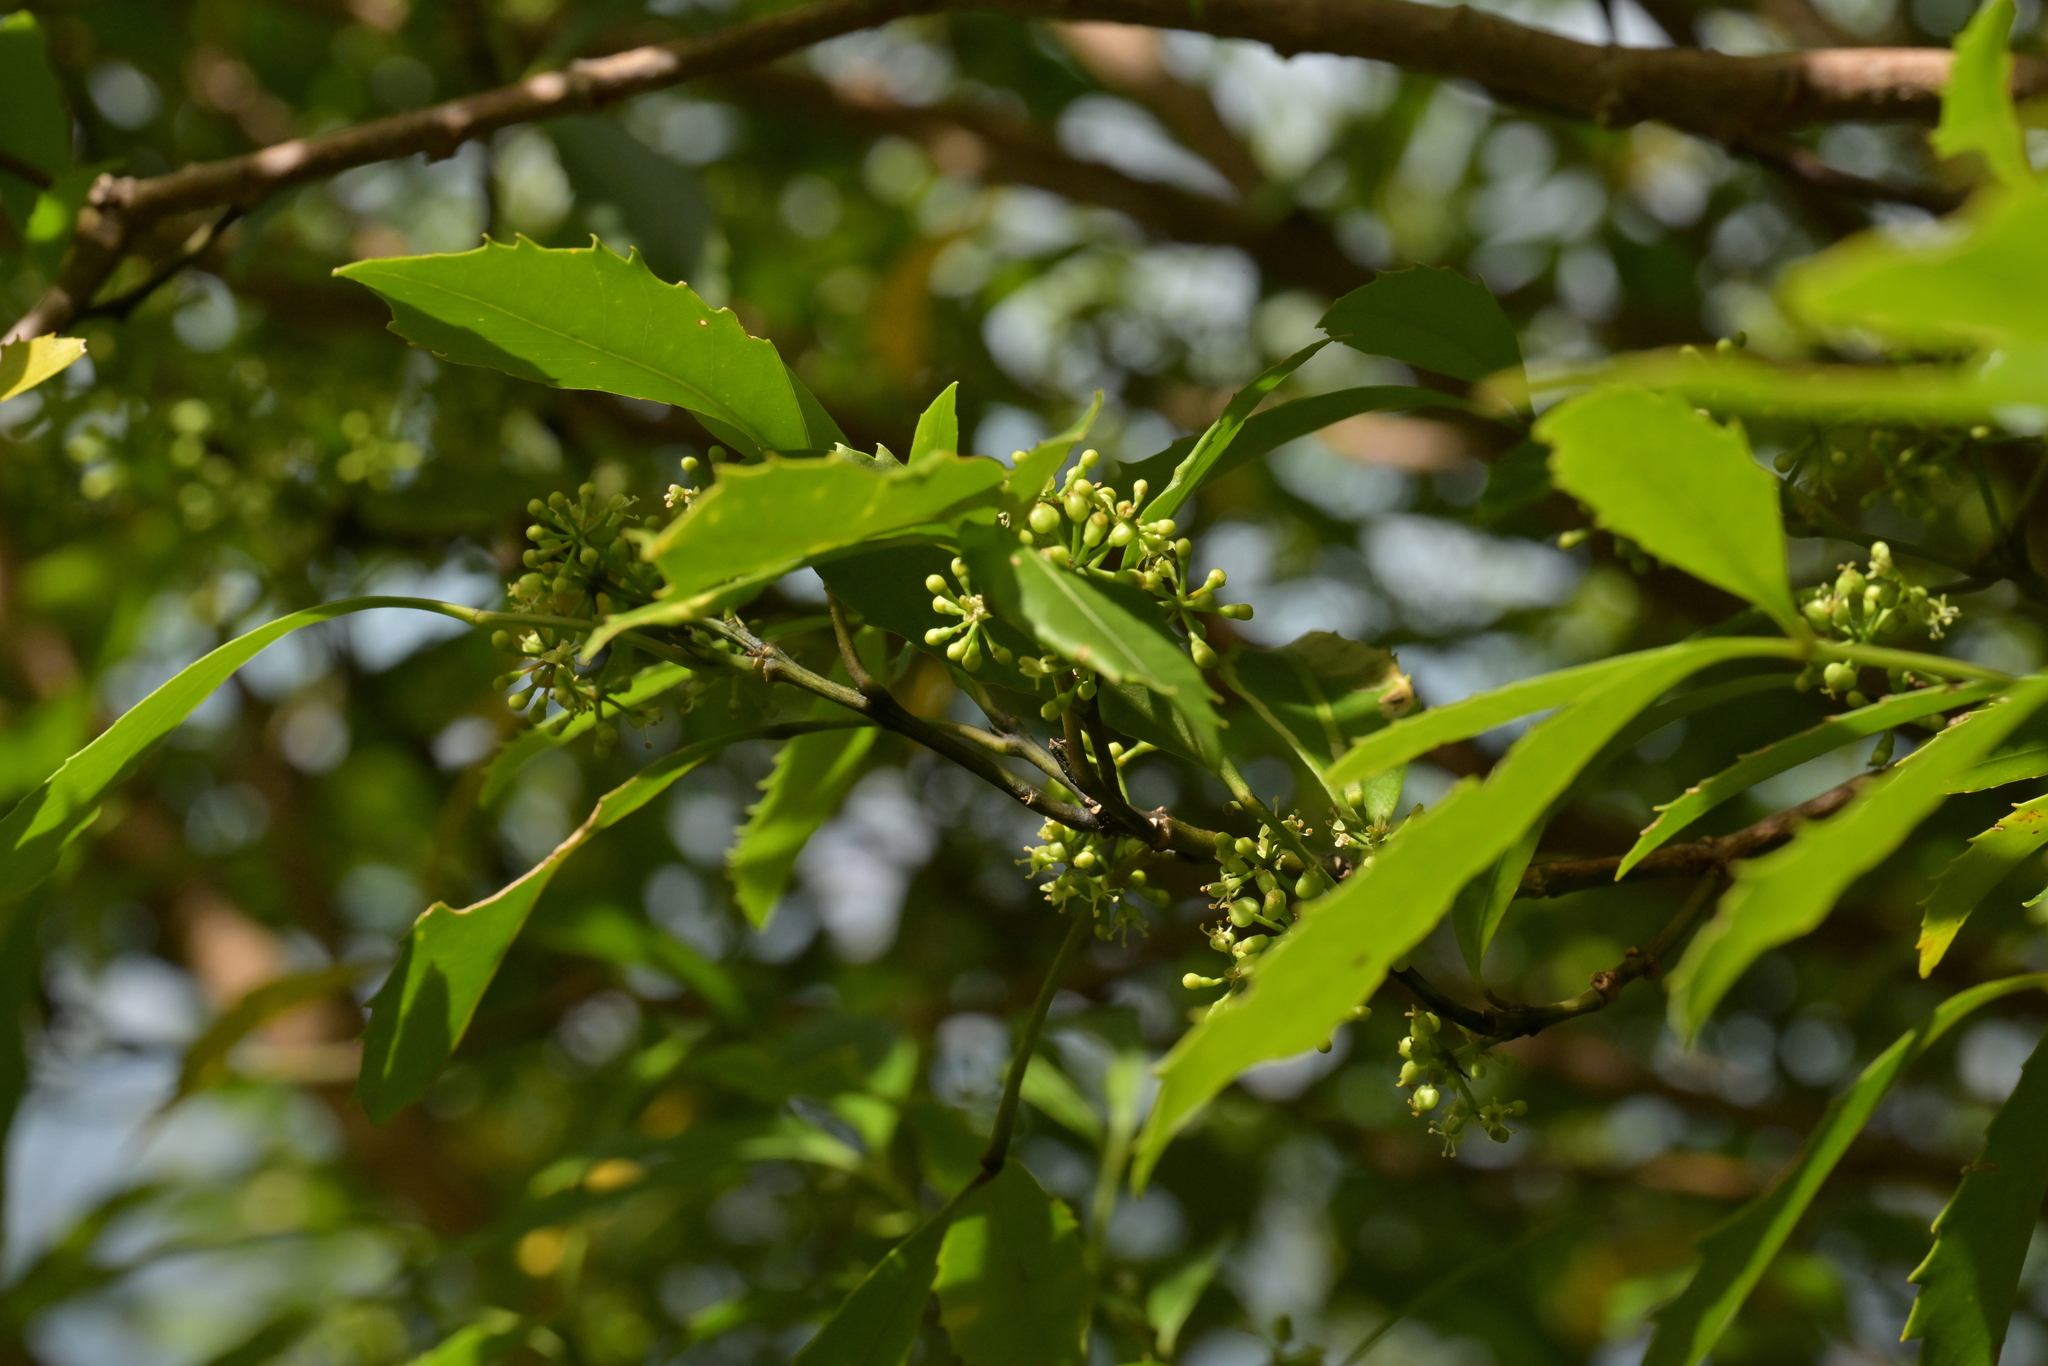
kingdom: Plantae
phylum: Tracheophyta
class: Magnoliopsida
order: Apiales
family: Araliaceae
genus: Neopanax
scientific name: Neopanax colensoi
